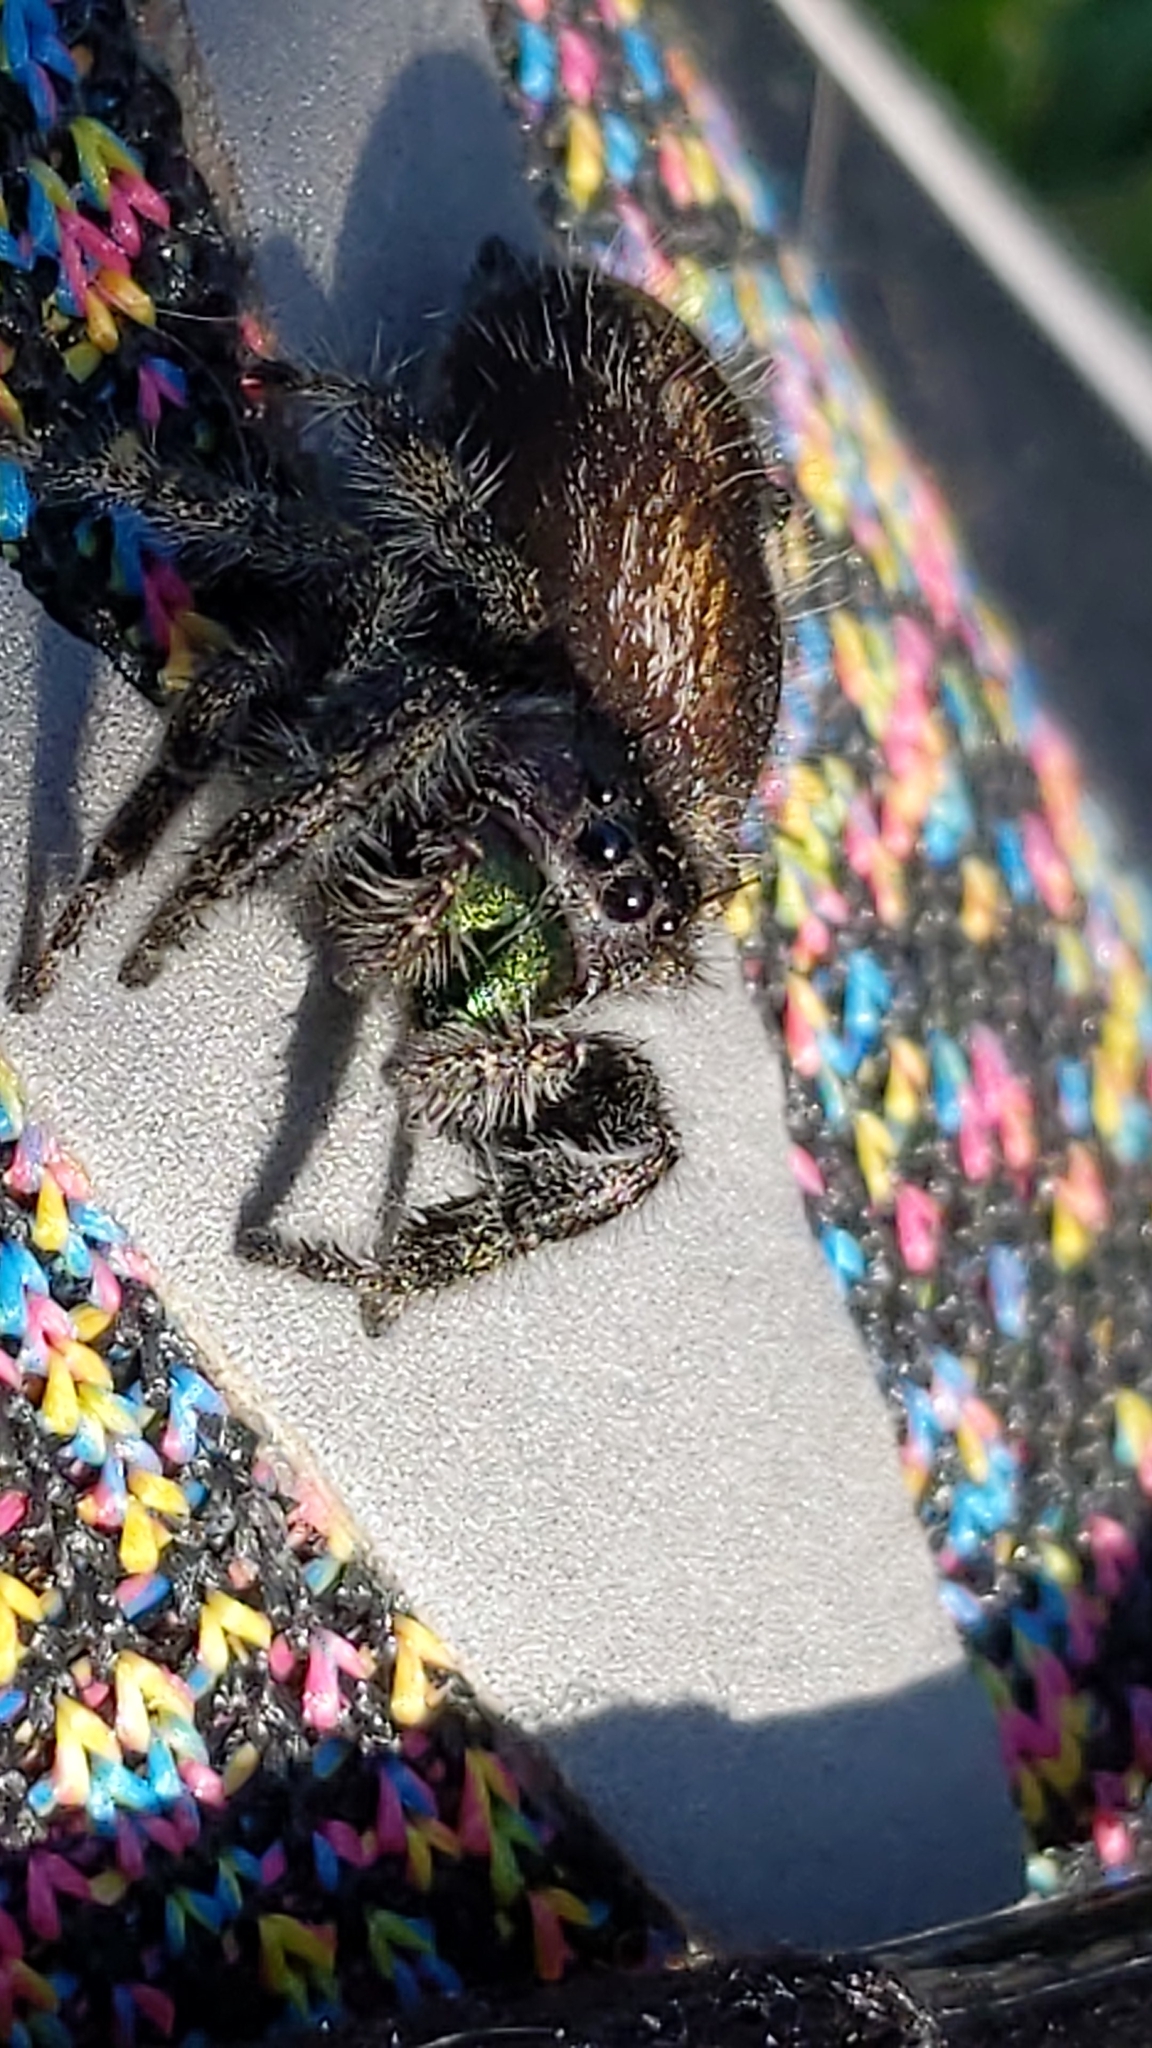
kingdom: Animalia
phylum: Arthropoda
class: Arachnida
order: Araneae
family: Salticidae
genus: Phidippus
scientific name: Phidippus audax
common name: Bold jumper
